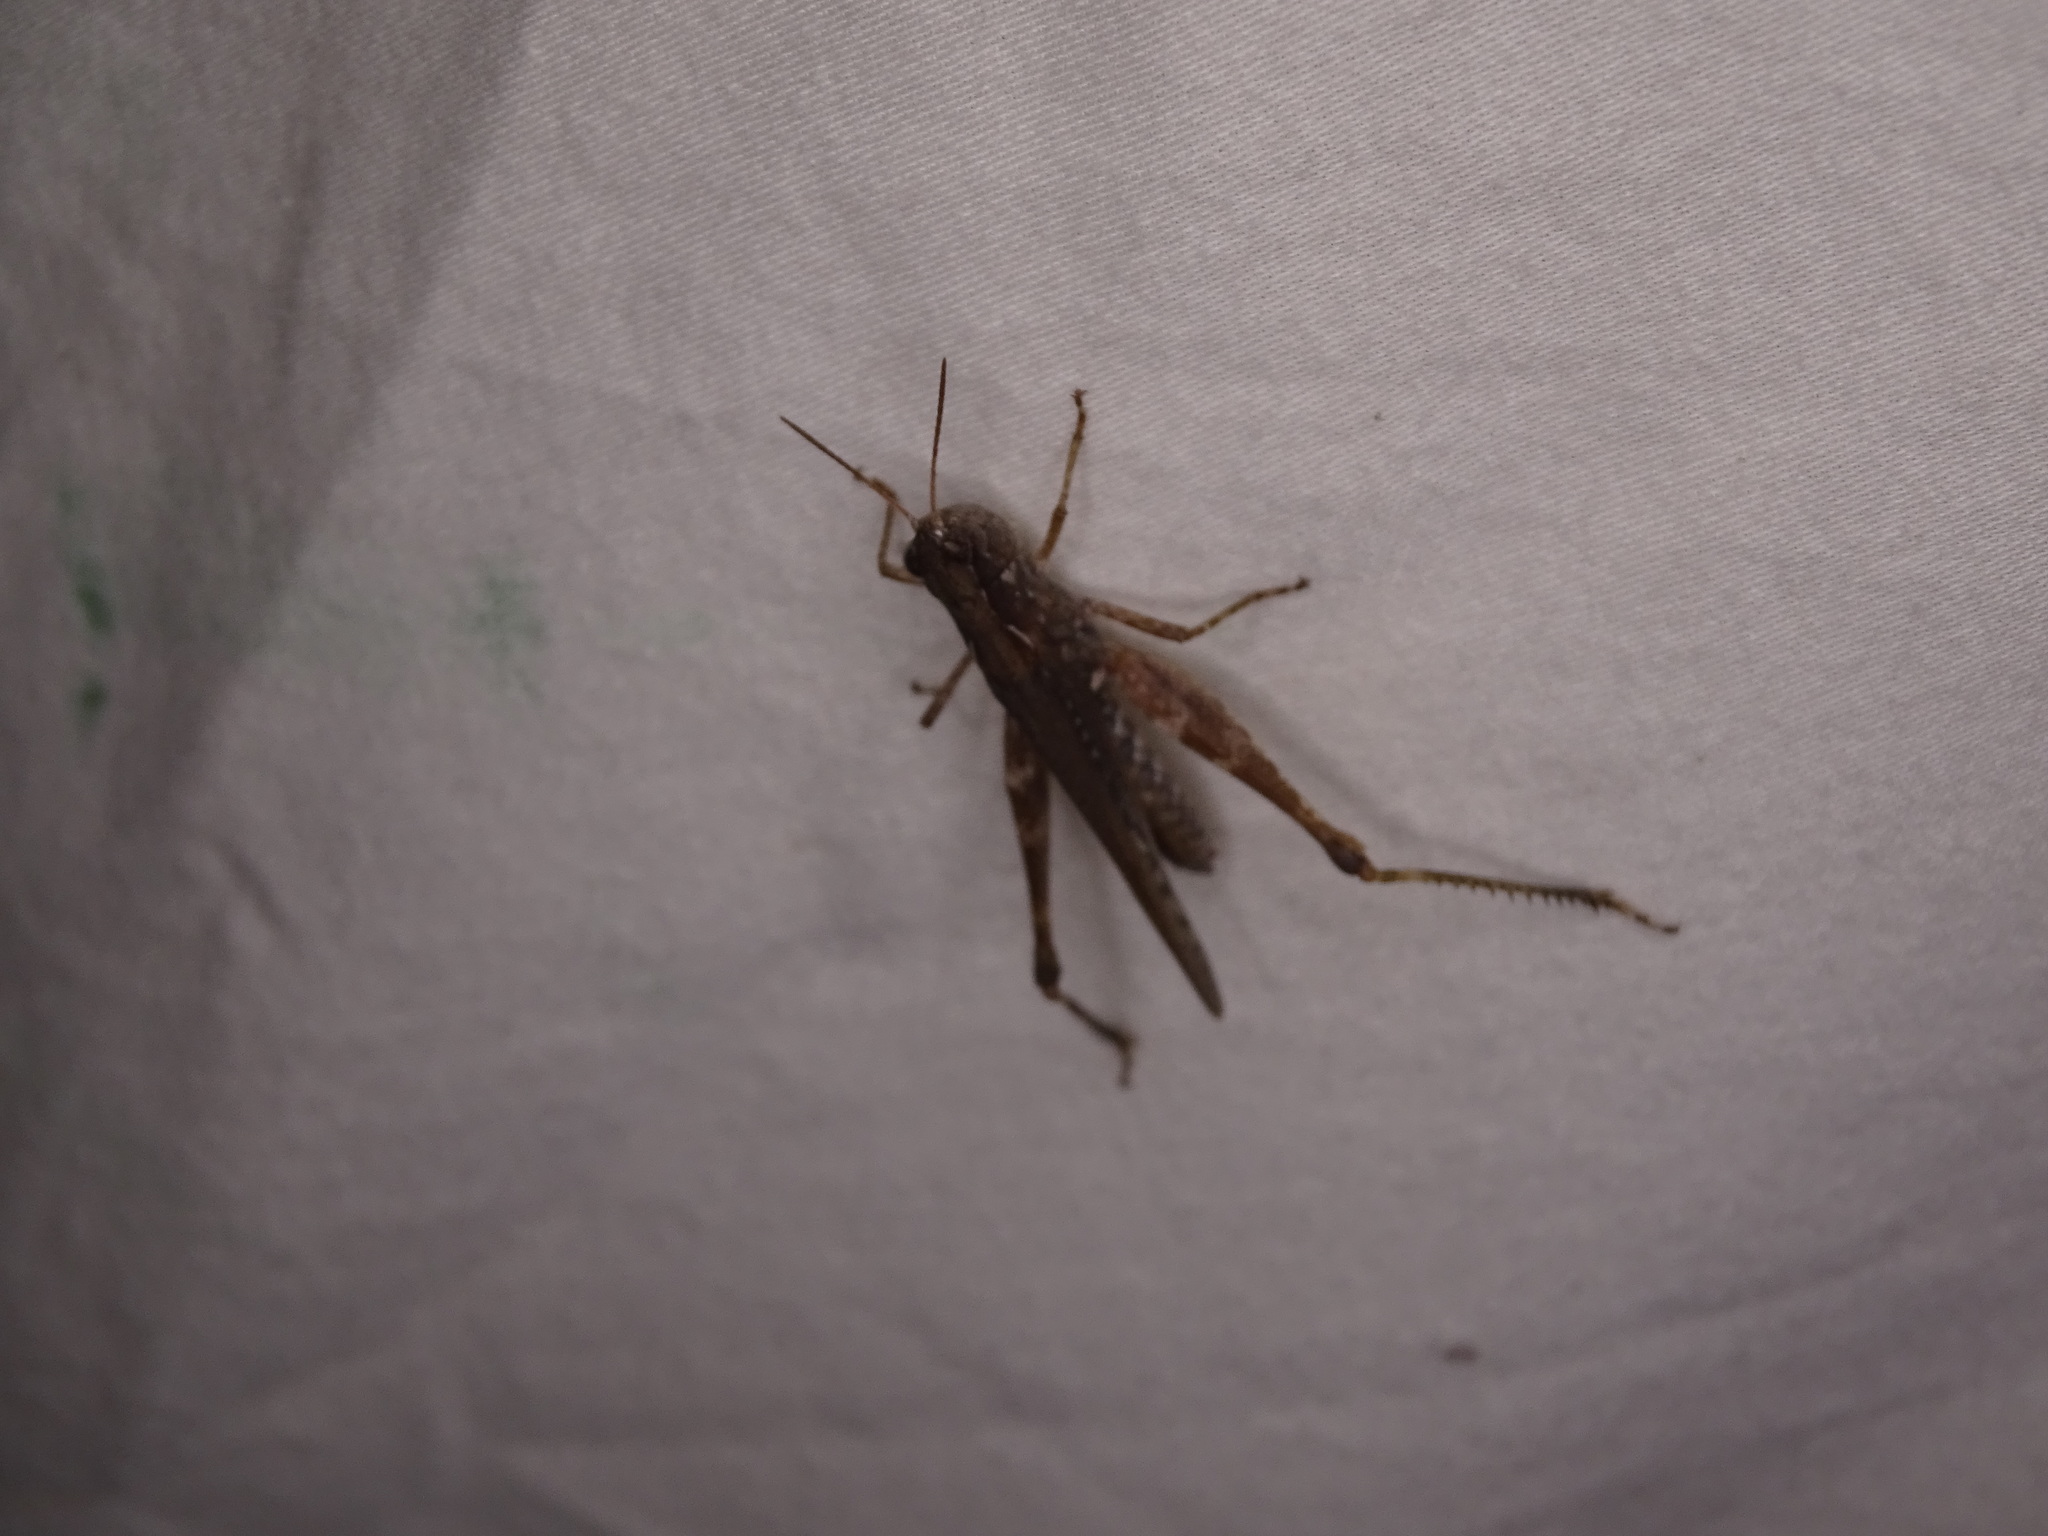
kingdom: Animalia
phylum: Arthropoda
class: Insecta
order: Orthoptera
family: Acrididae
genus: Orphulella
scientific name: Orphulella pelidna
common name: Spotted-wing grasshopper
